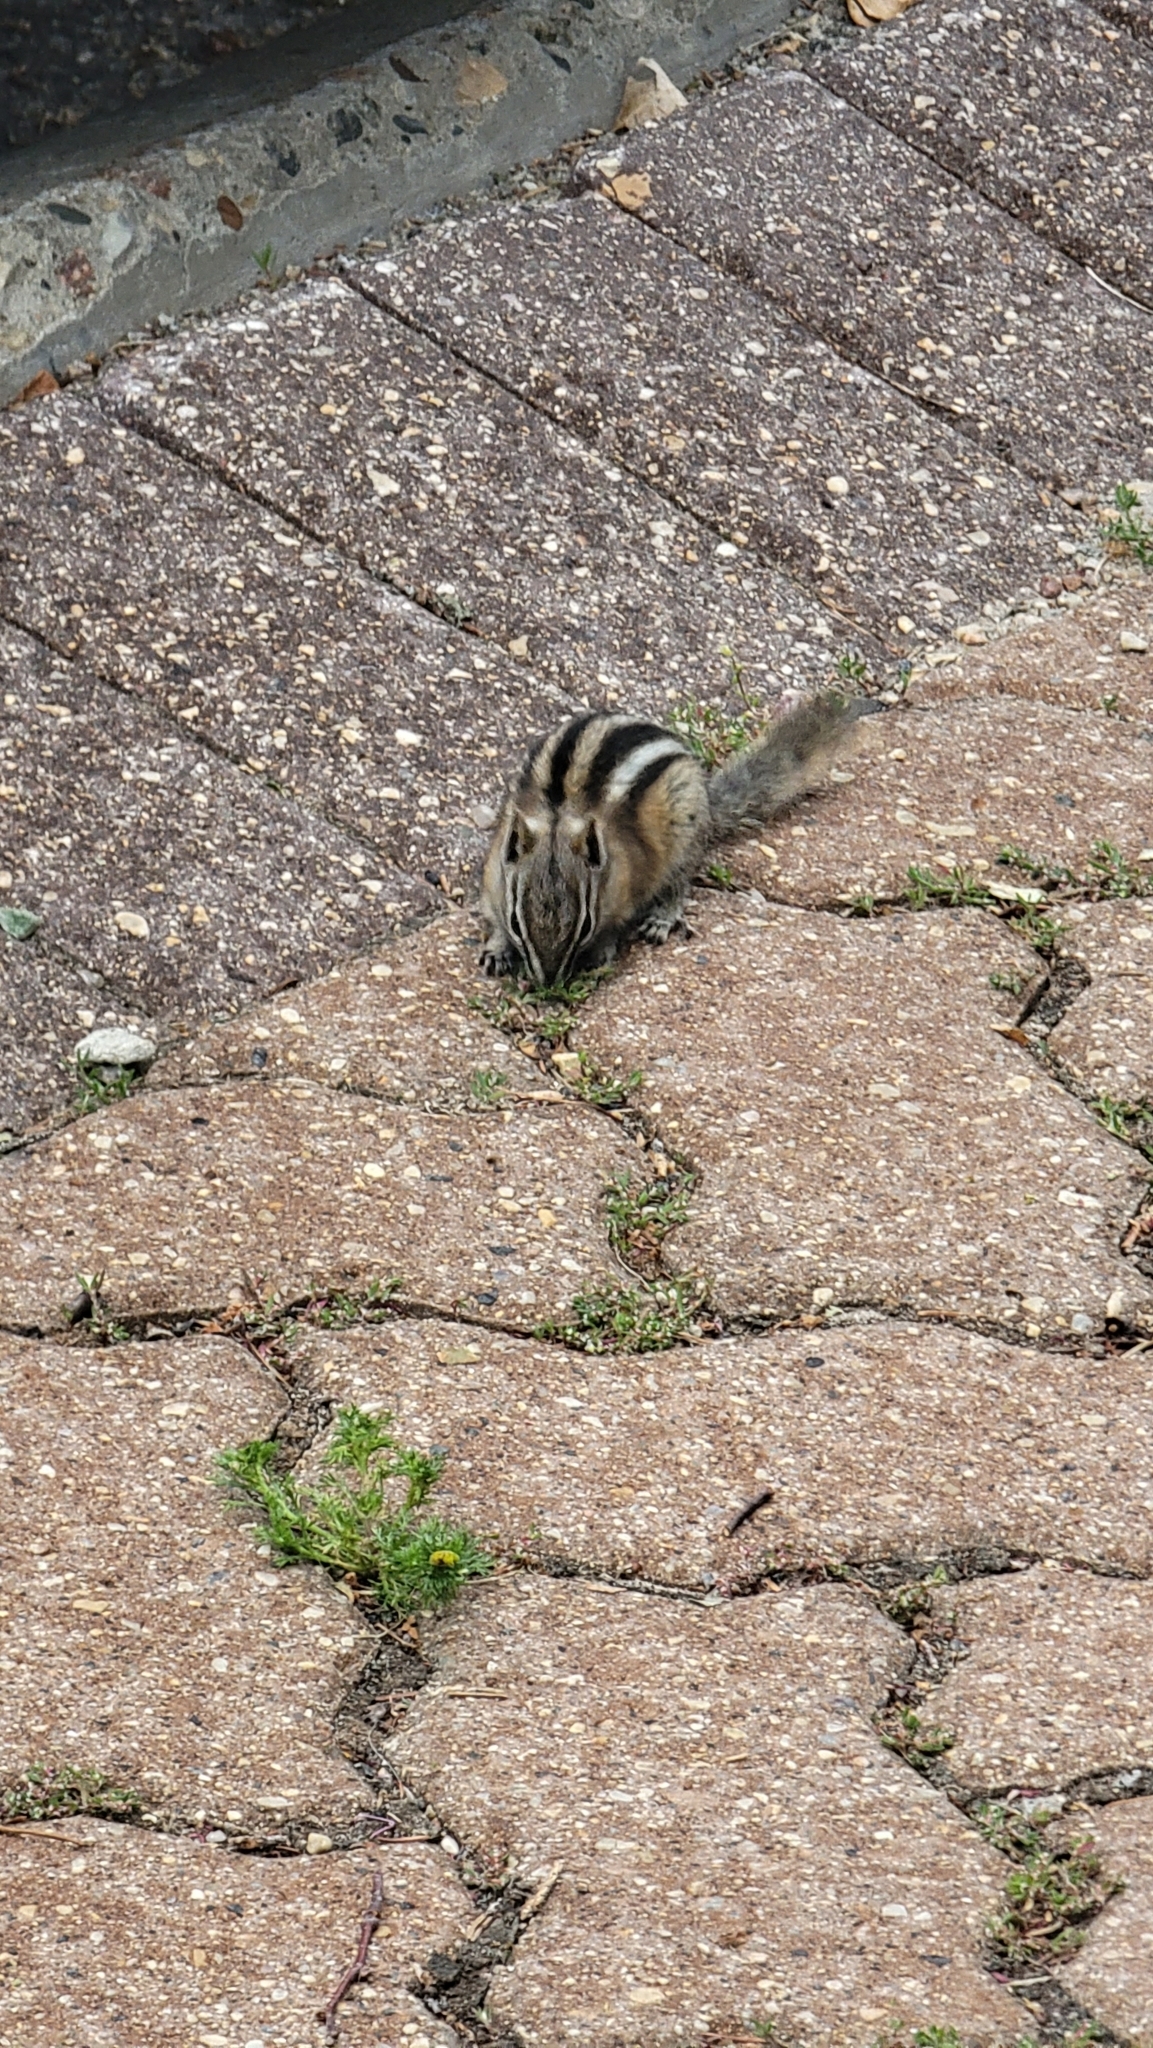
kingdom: Animalia
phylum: Chordata
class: Mammalia
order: Rodentia
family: Sciuridae
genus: Tamias
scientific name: Tamias minimus
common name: Least chipmunk
